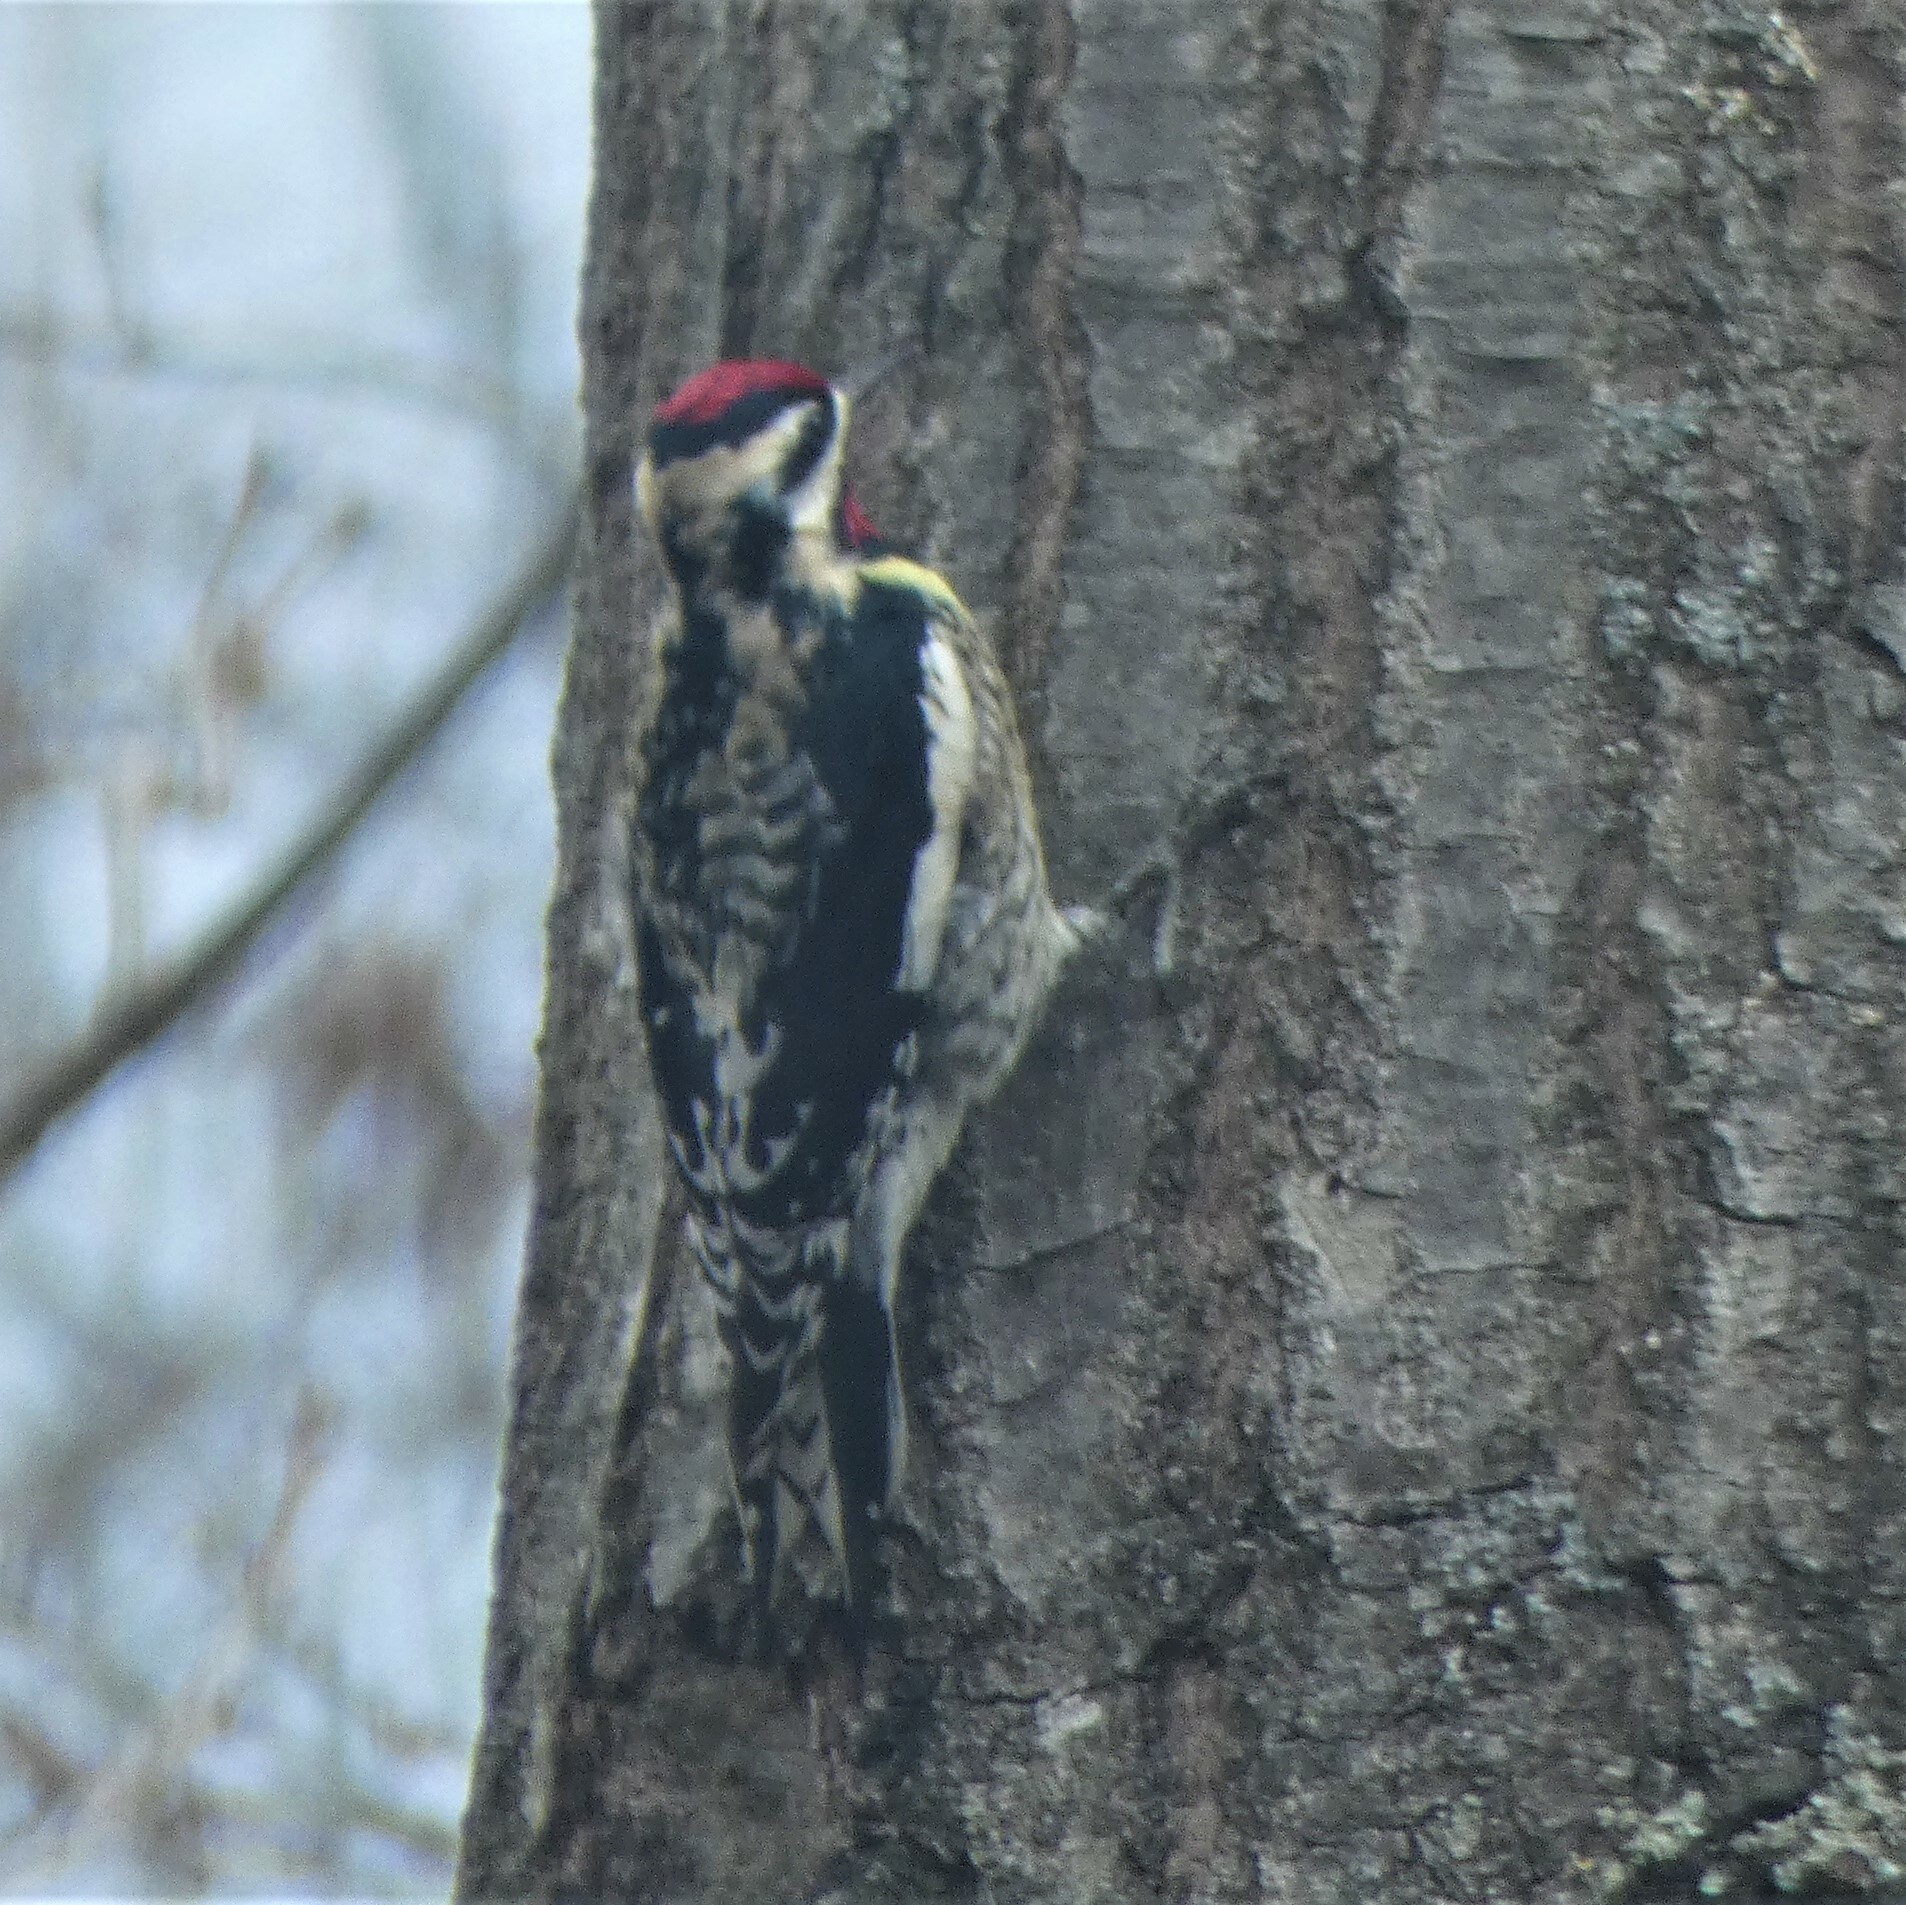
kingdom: Animalia
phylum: Chordata
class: Aves
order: Piciformes
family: Picidae
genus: Sphyrapicus
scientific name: Sphyrapicus varius
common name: Yellow-bellied sapsucker
